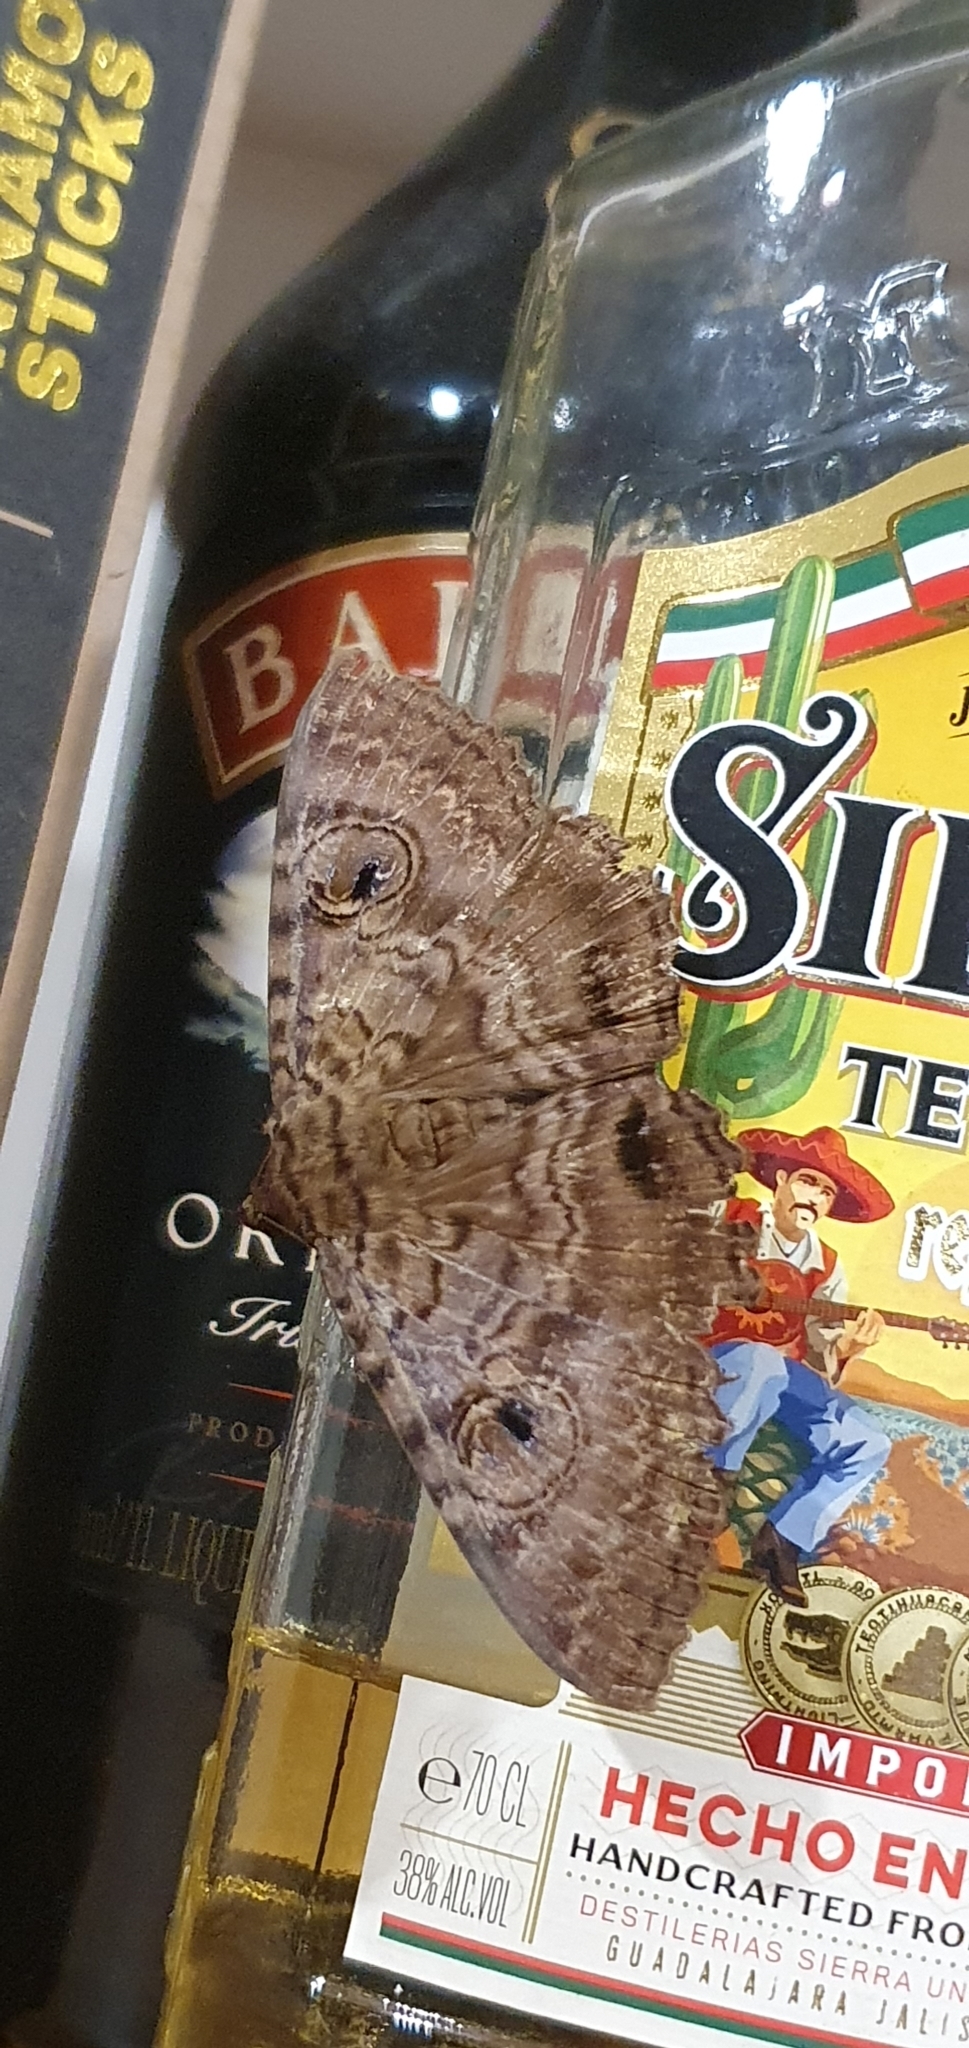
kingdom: Animalia
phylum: Arthropoda
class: Insecta
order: Lepidoptera
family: Erebidae
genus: Speiredonia
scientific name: Speiredonia spectans
